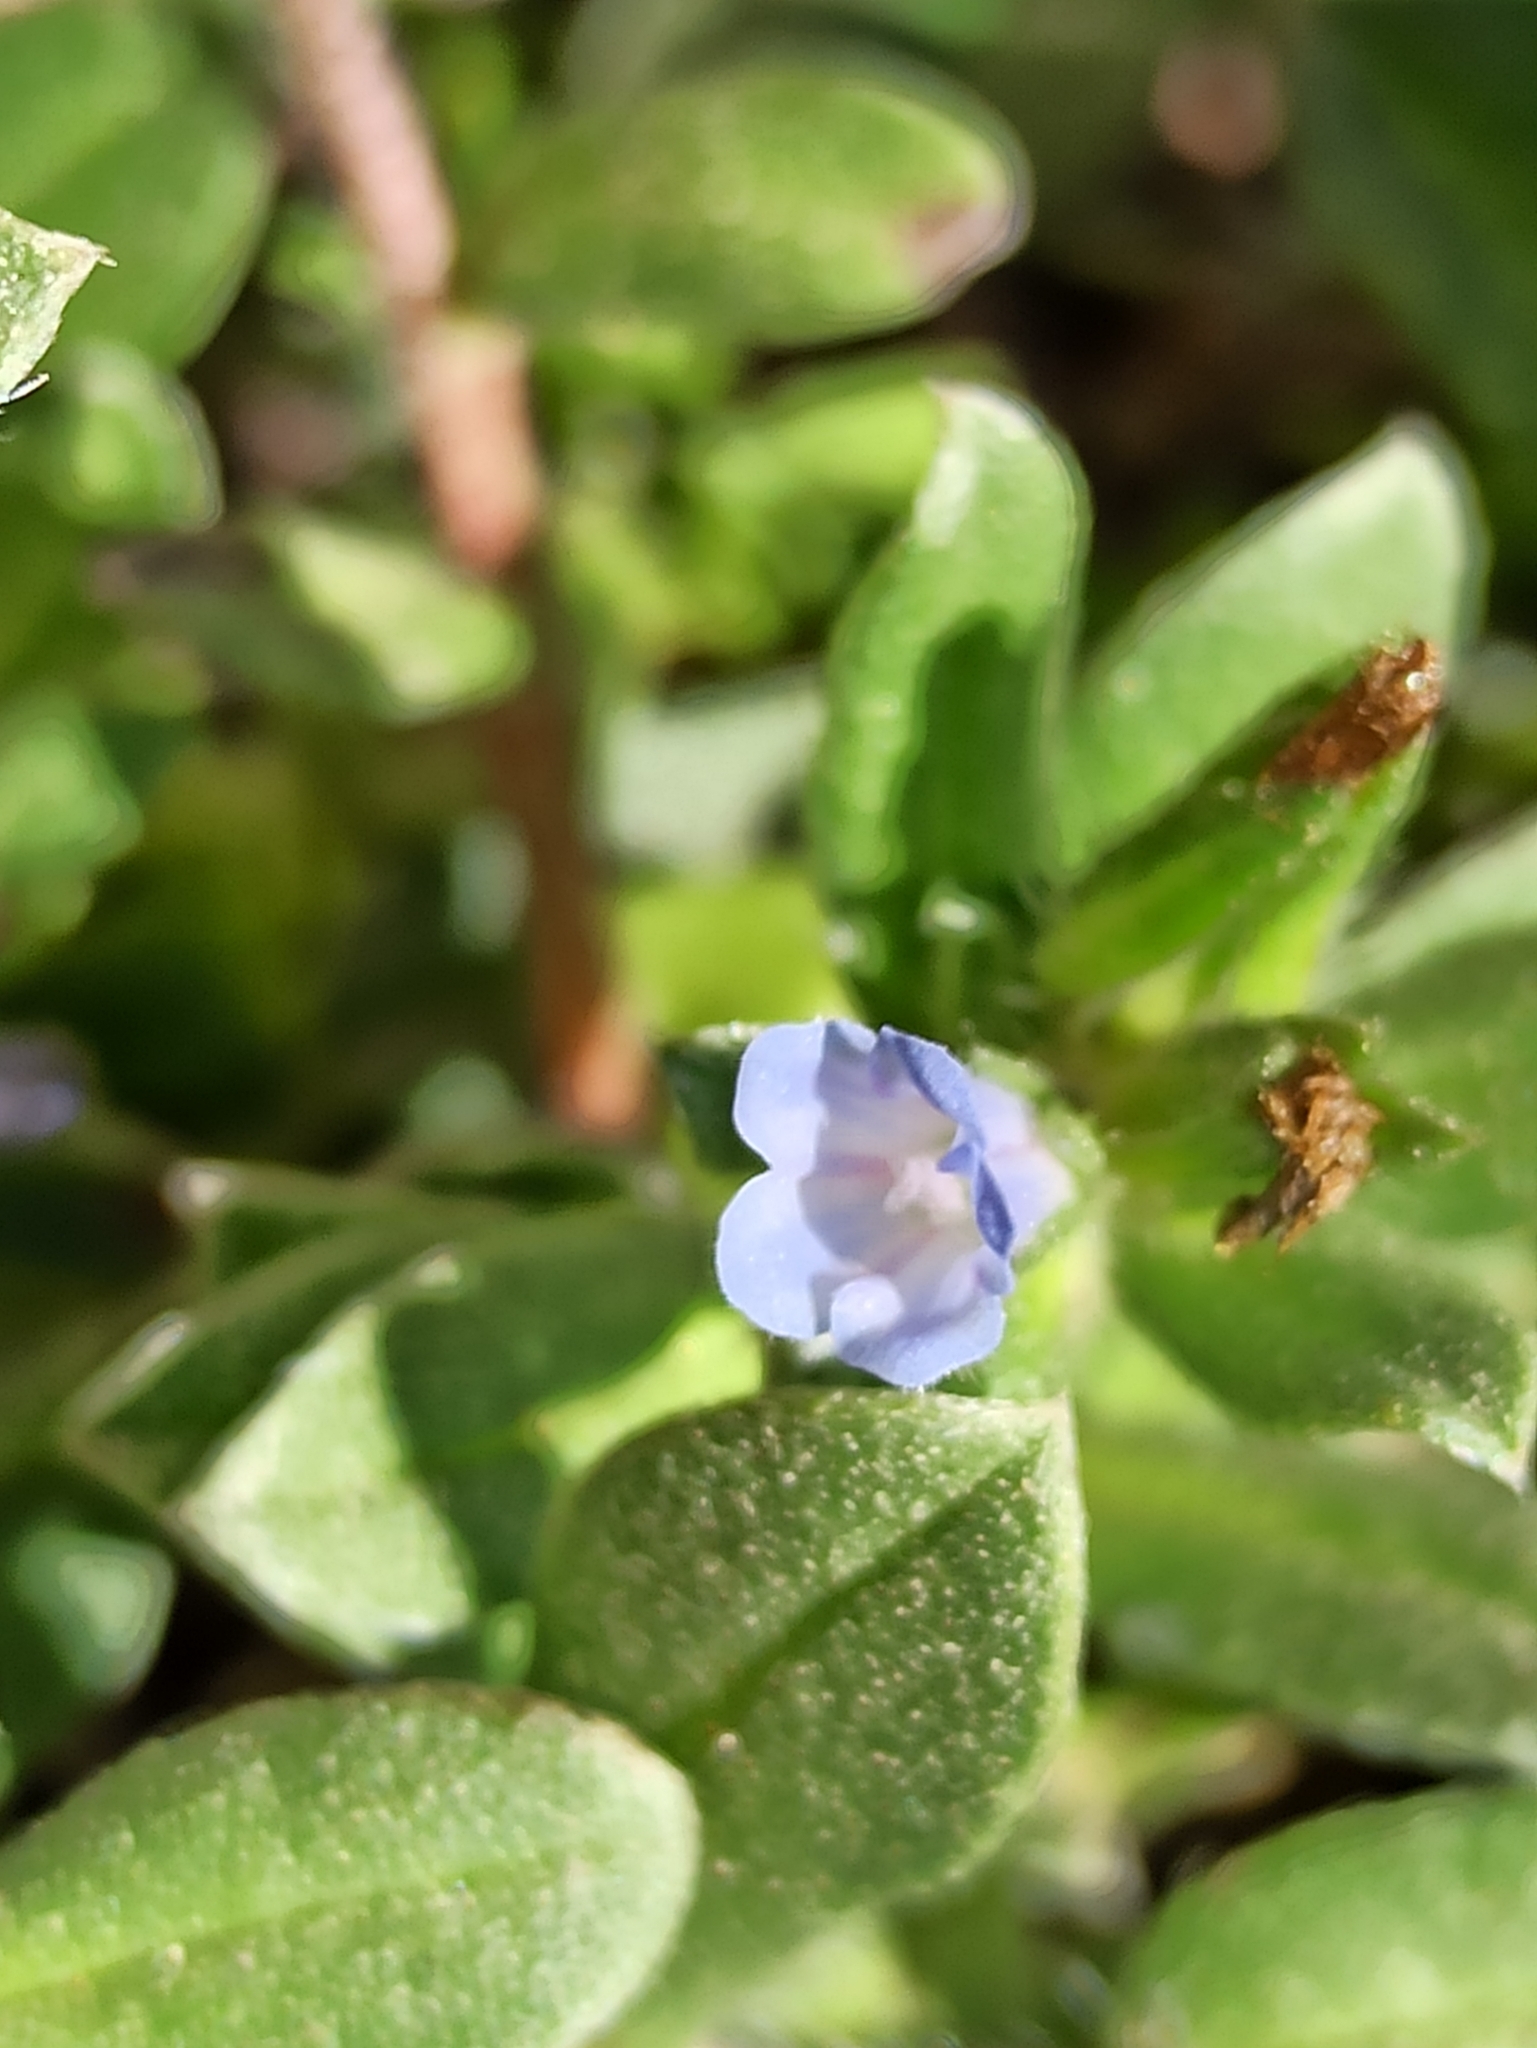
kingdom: Plantae
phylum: Tracheophyta
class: Magnoliopsida
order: Boraginales
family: Boraginaceae
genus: Echium
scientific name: Echium parviflorum
